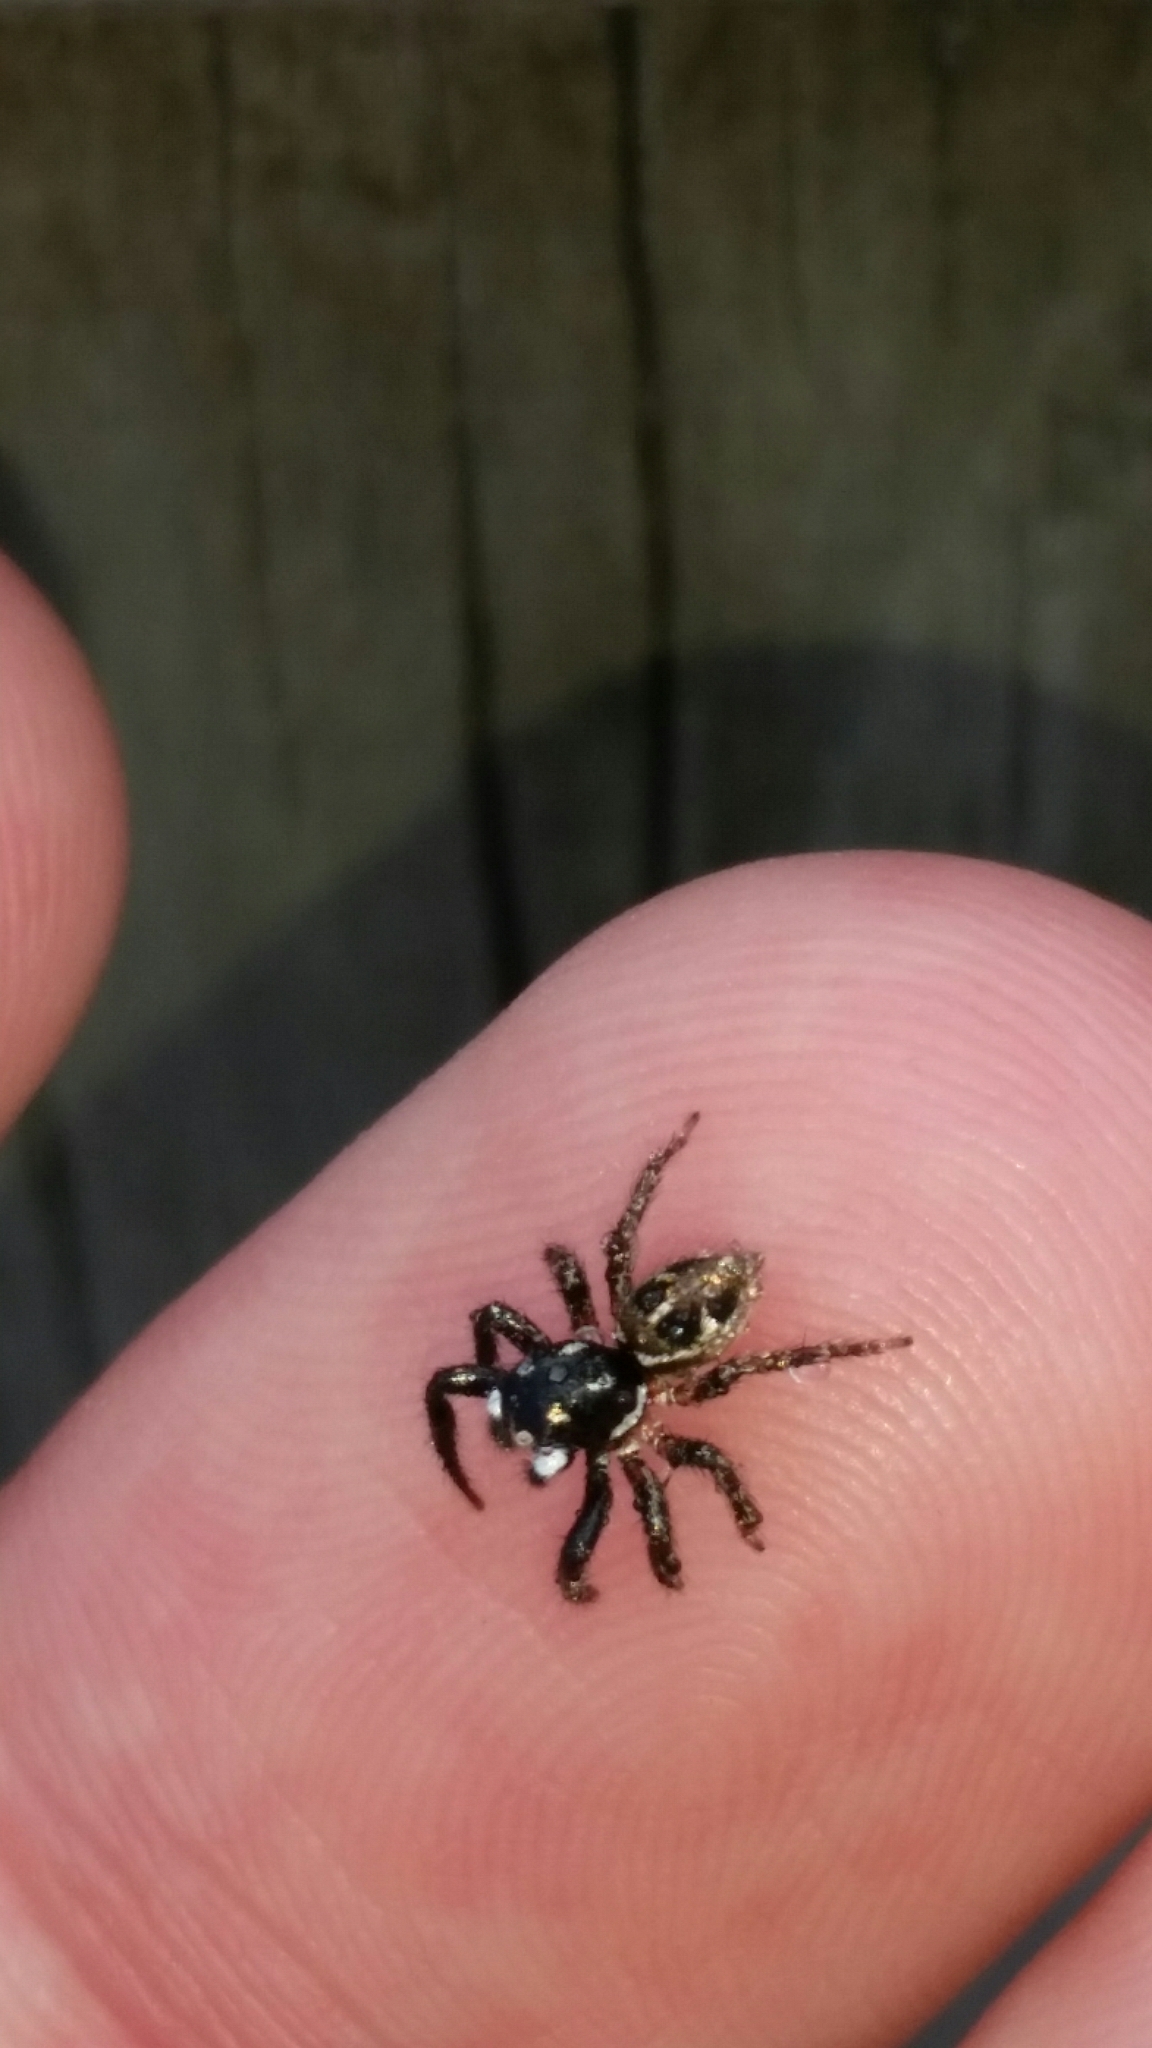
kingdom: Animalia
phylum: Arthropoda
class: Arachnida
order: Araneae
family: Salticidae
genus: Anasaitis
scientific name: Anasaitis canosa
